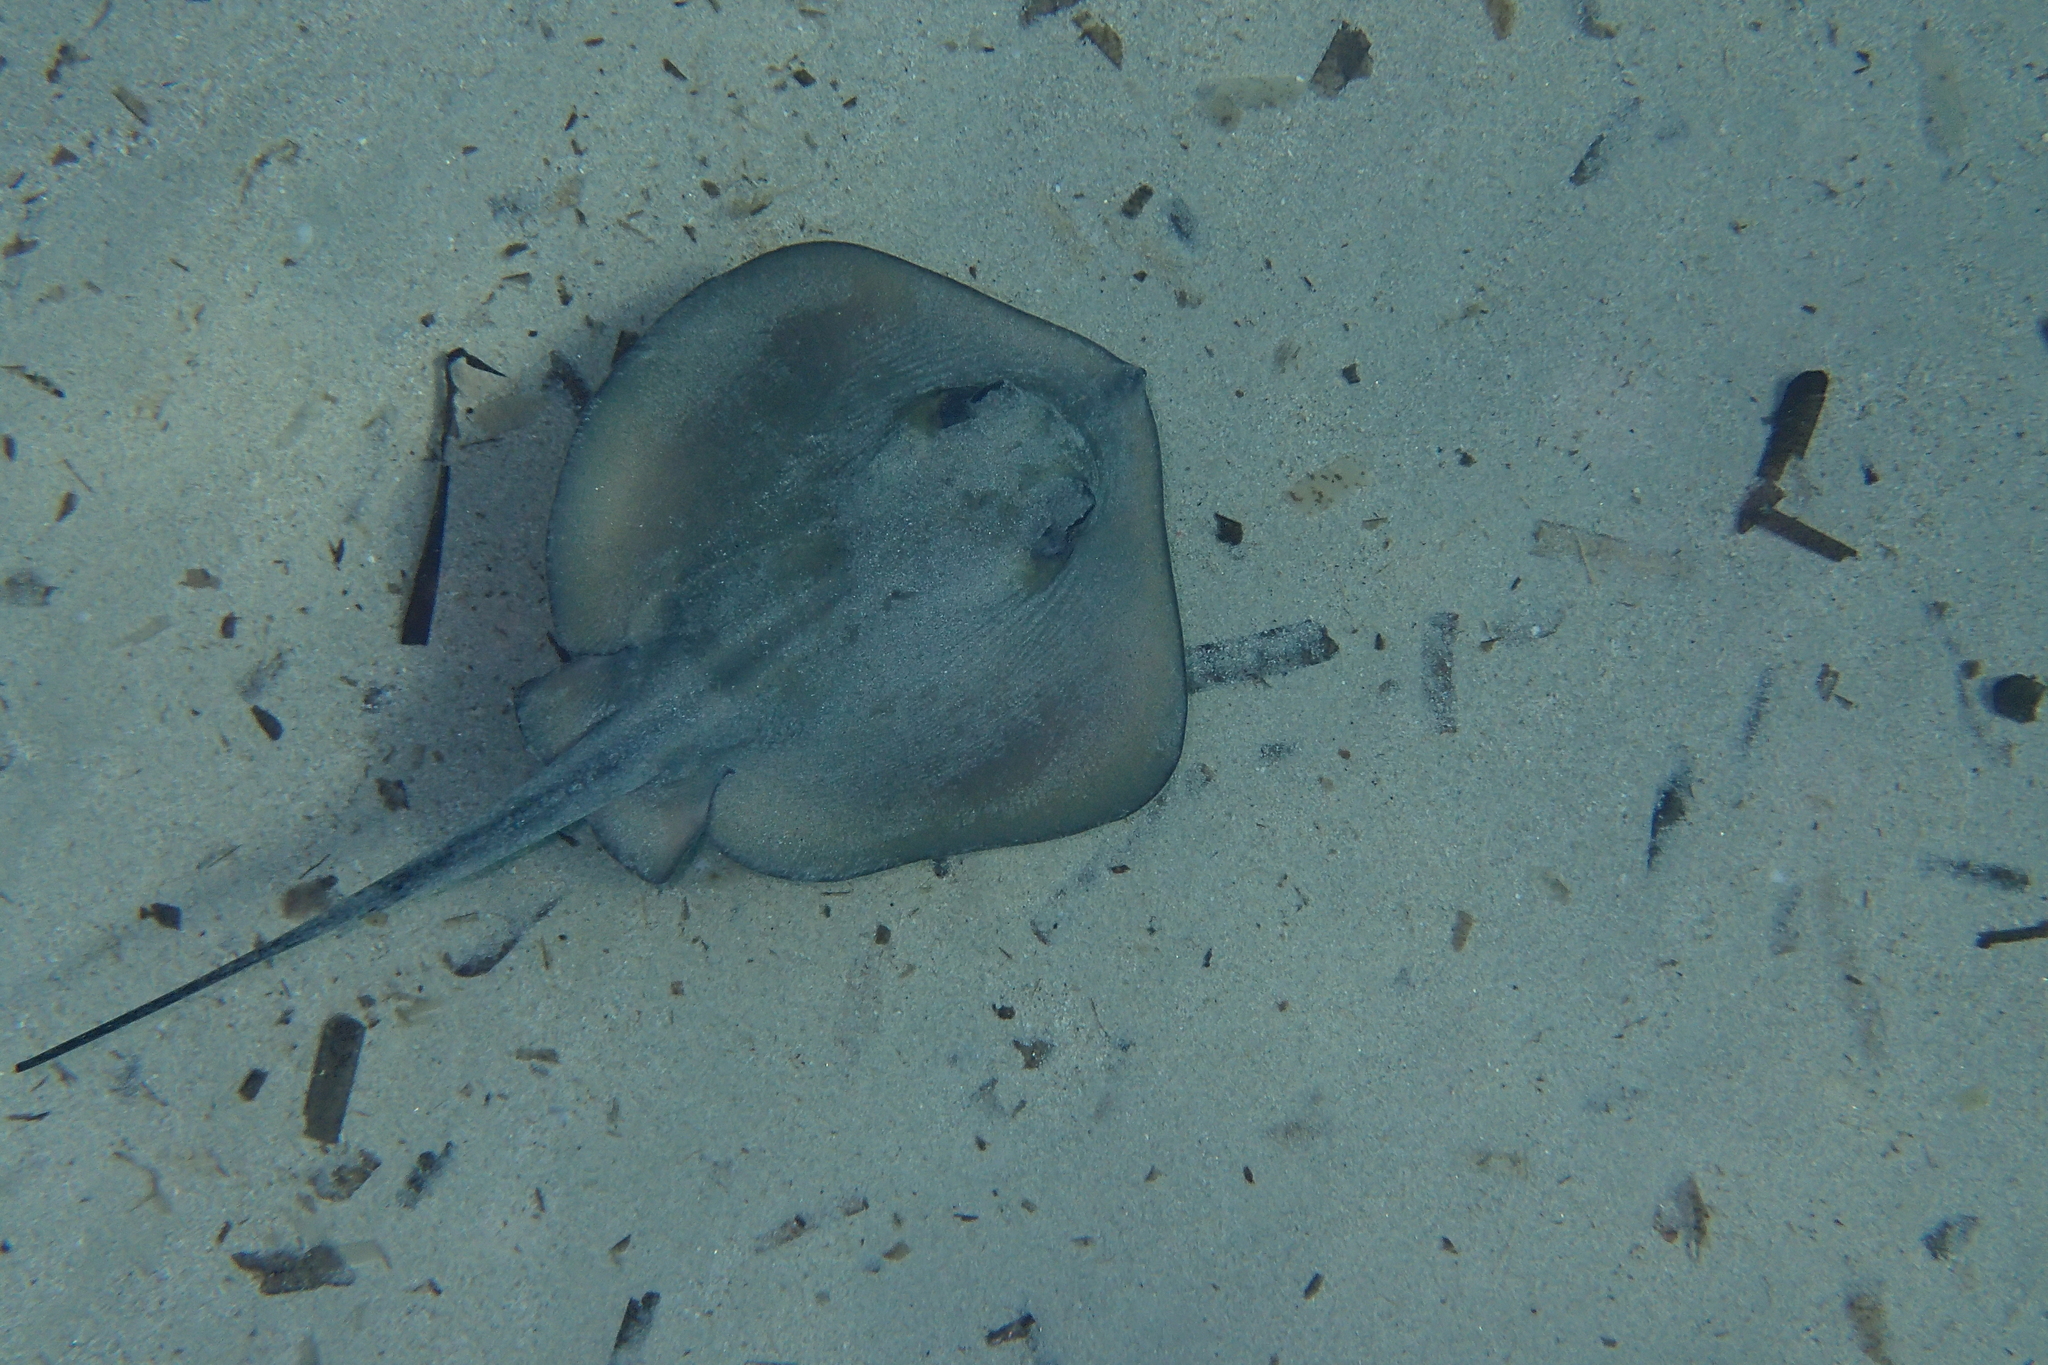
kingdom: Animalia
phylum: Chordata
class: Elasmobranchii
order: Myliobatiformes
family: Dasyatidae
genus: Dasyatis
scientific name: Dasyatis tortonesei
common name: Tortonese's stingray
